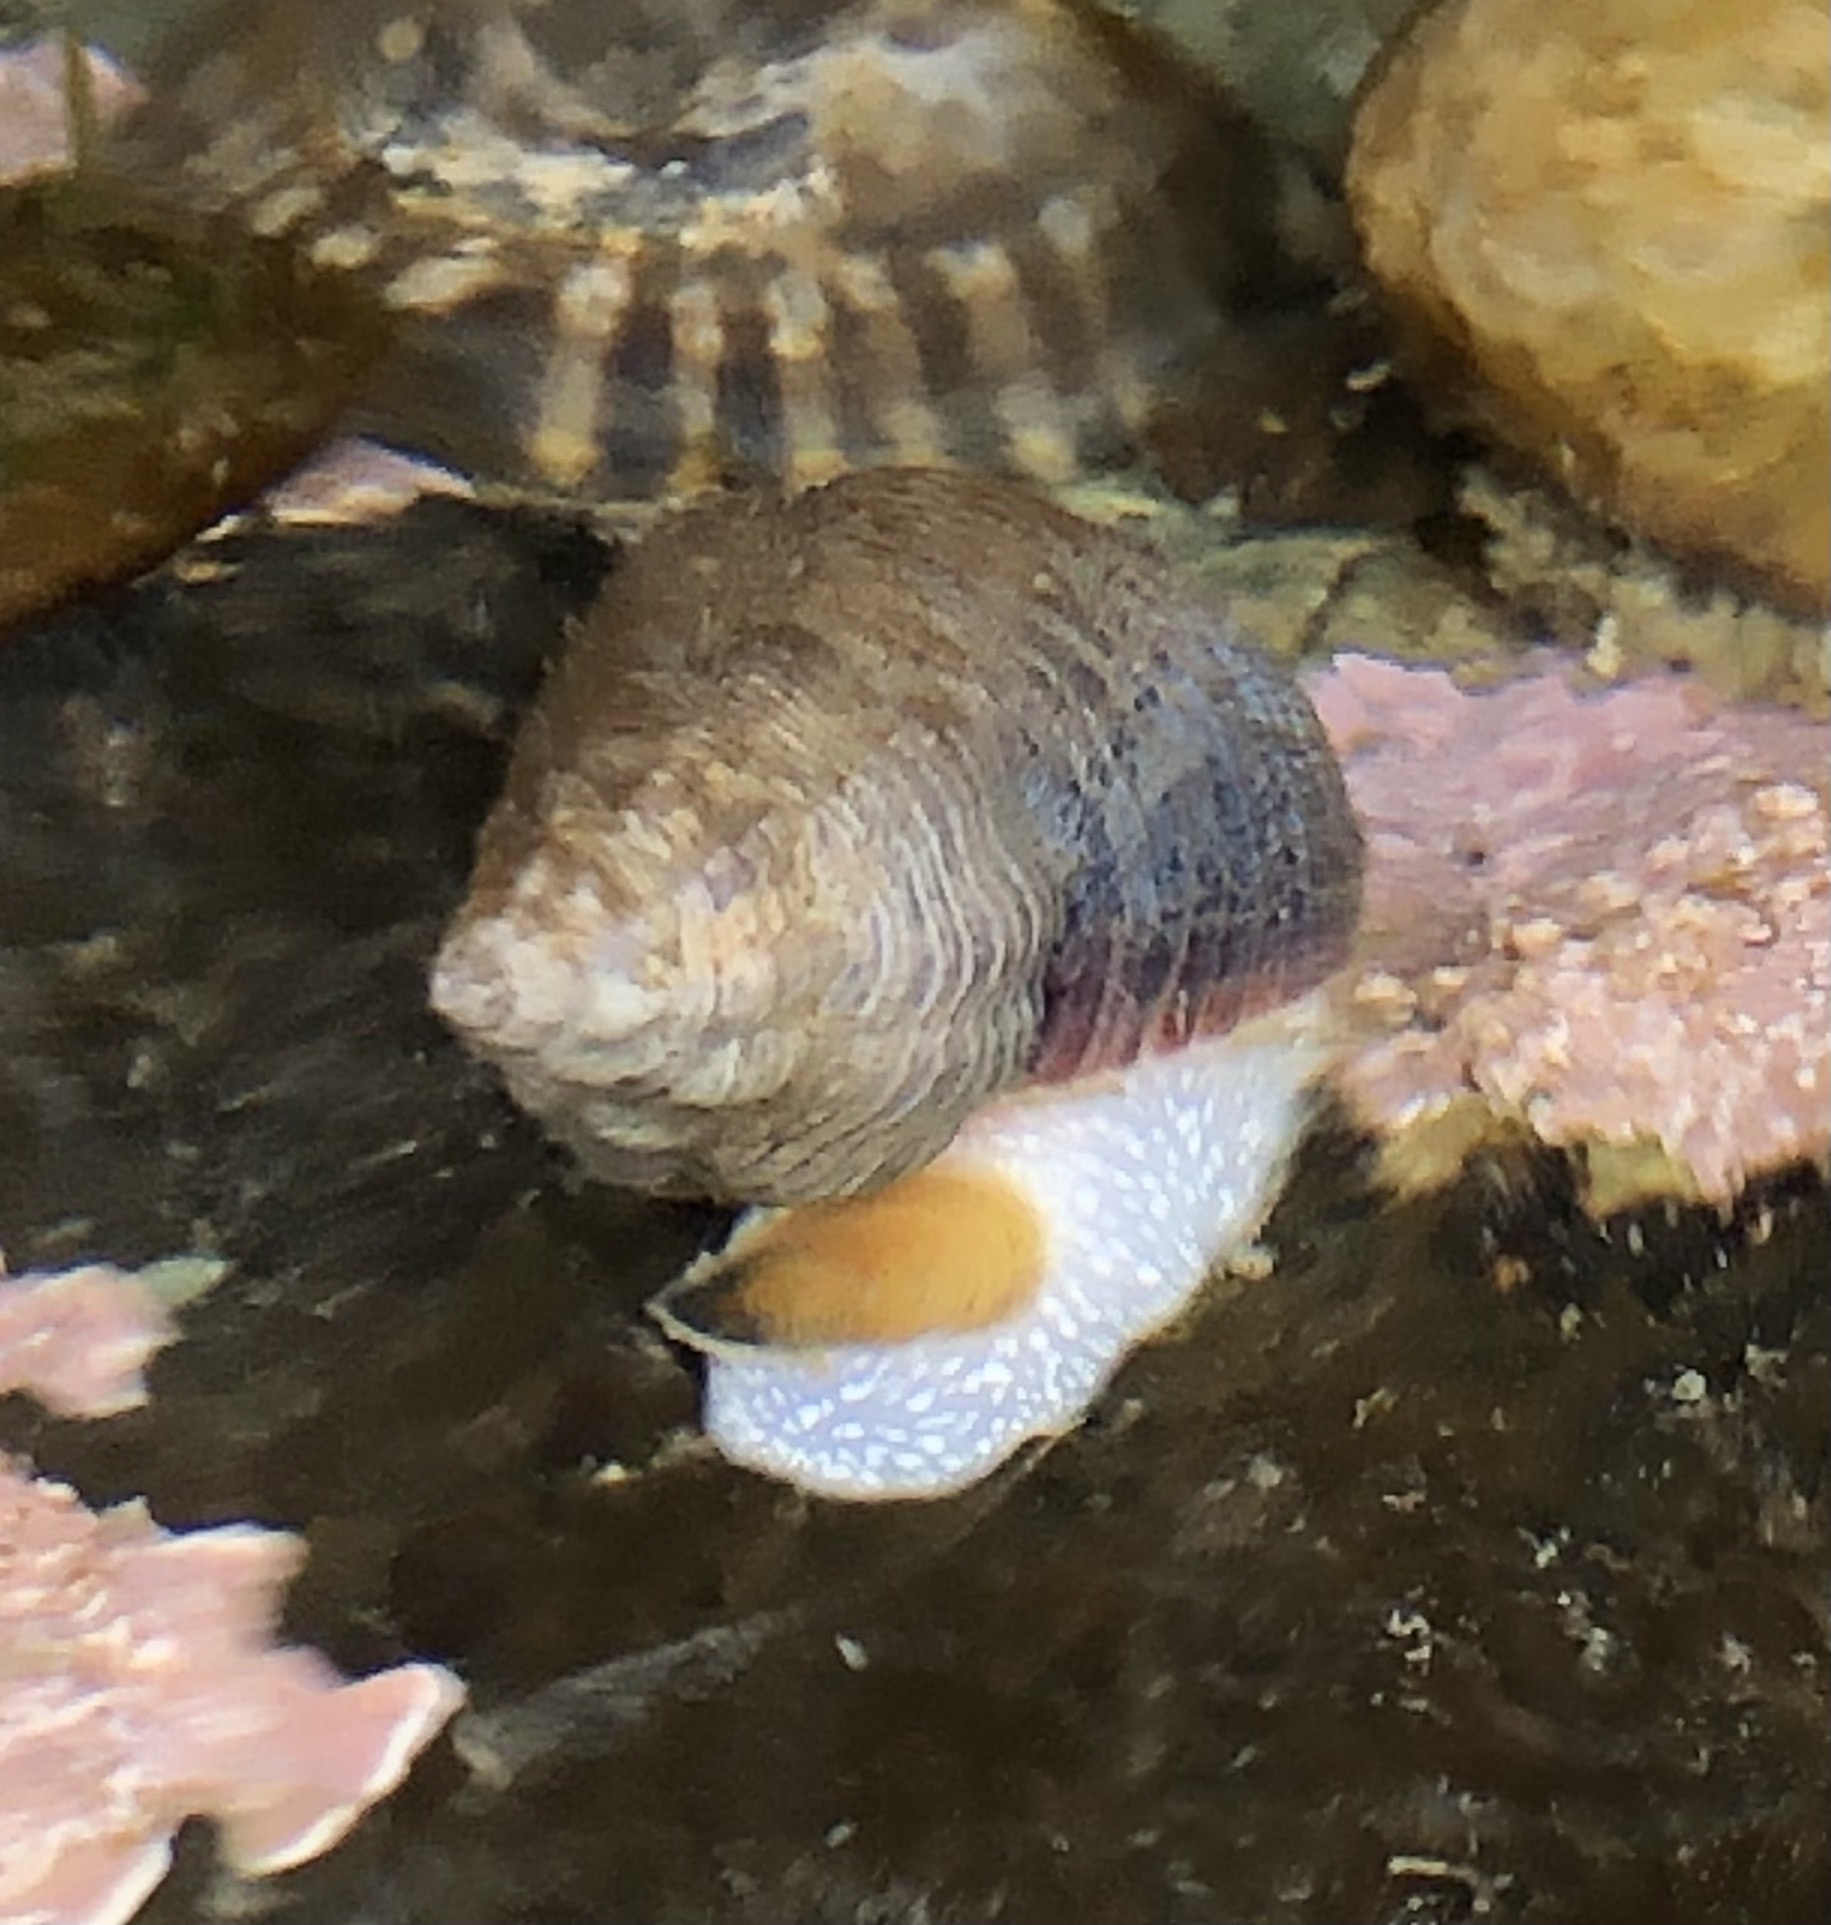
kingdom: Animalia
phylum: Mollusca
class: Gastropoda
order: Neogastropoda
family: Tudiclidae
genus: Lirabuccinum
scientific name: Lirabuccinum dirum
